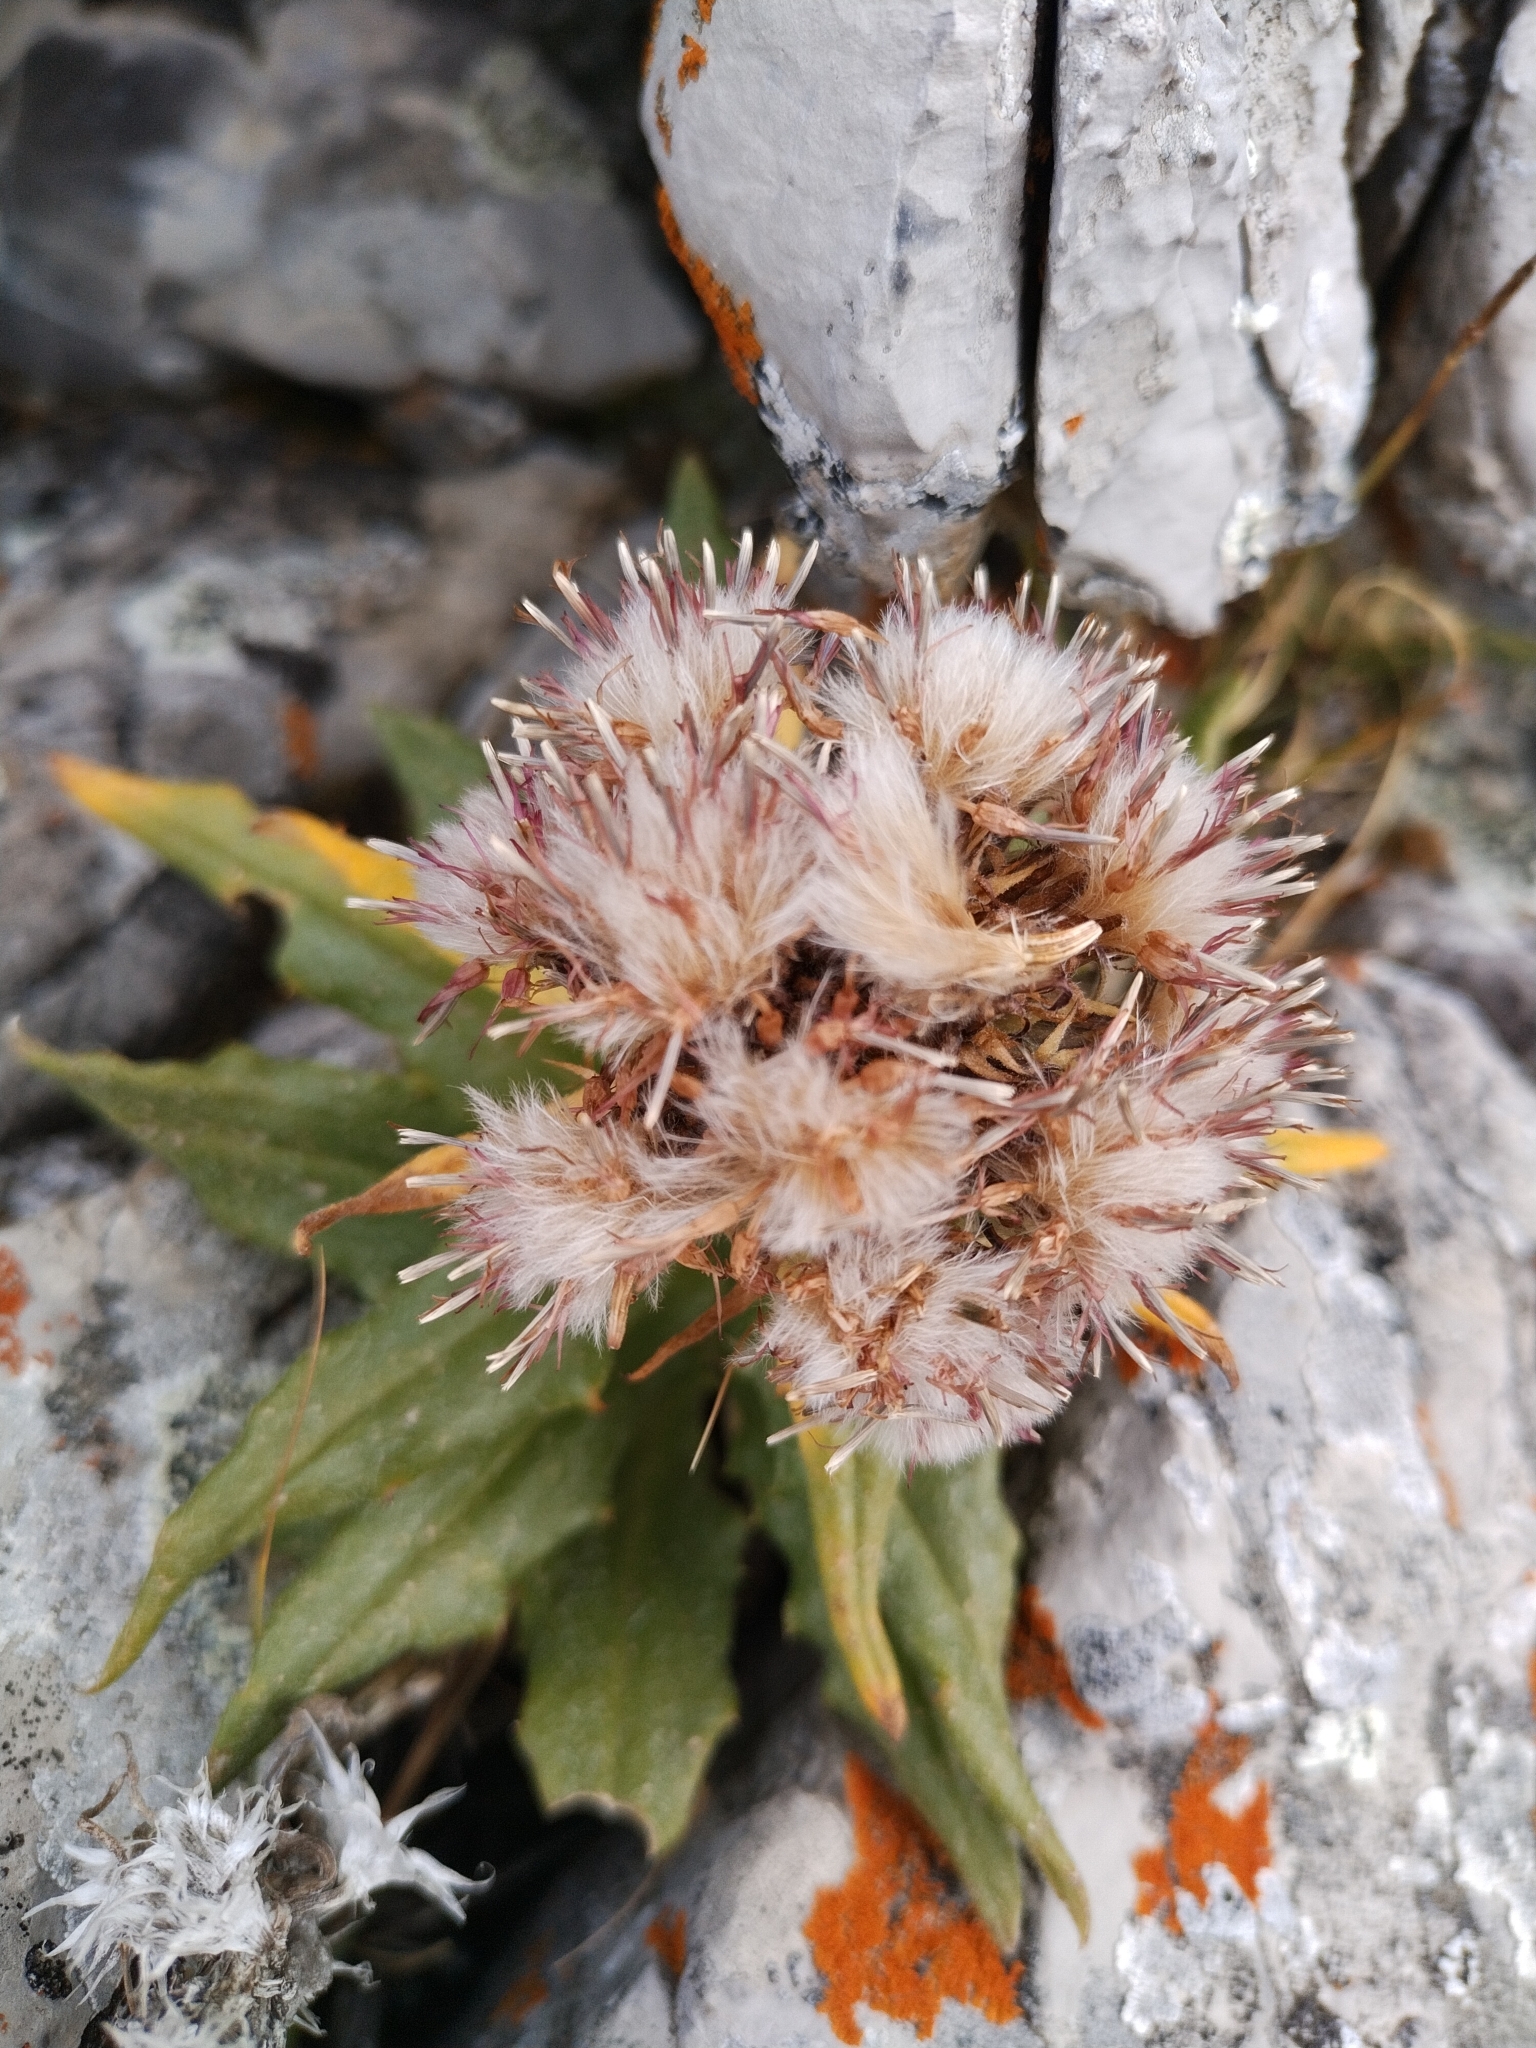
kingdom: Plantae
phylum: Tracheophyta
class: Magnoliopsida
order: Asterales
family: Asteraceae
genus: Saussurea
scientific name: Saussurea nuda
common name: Chaffless saw-wort
